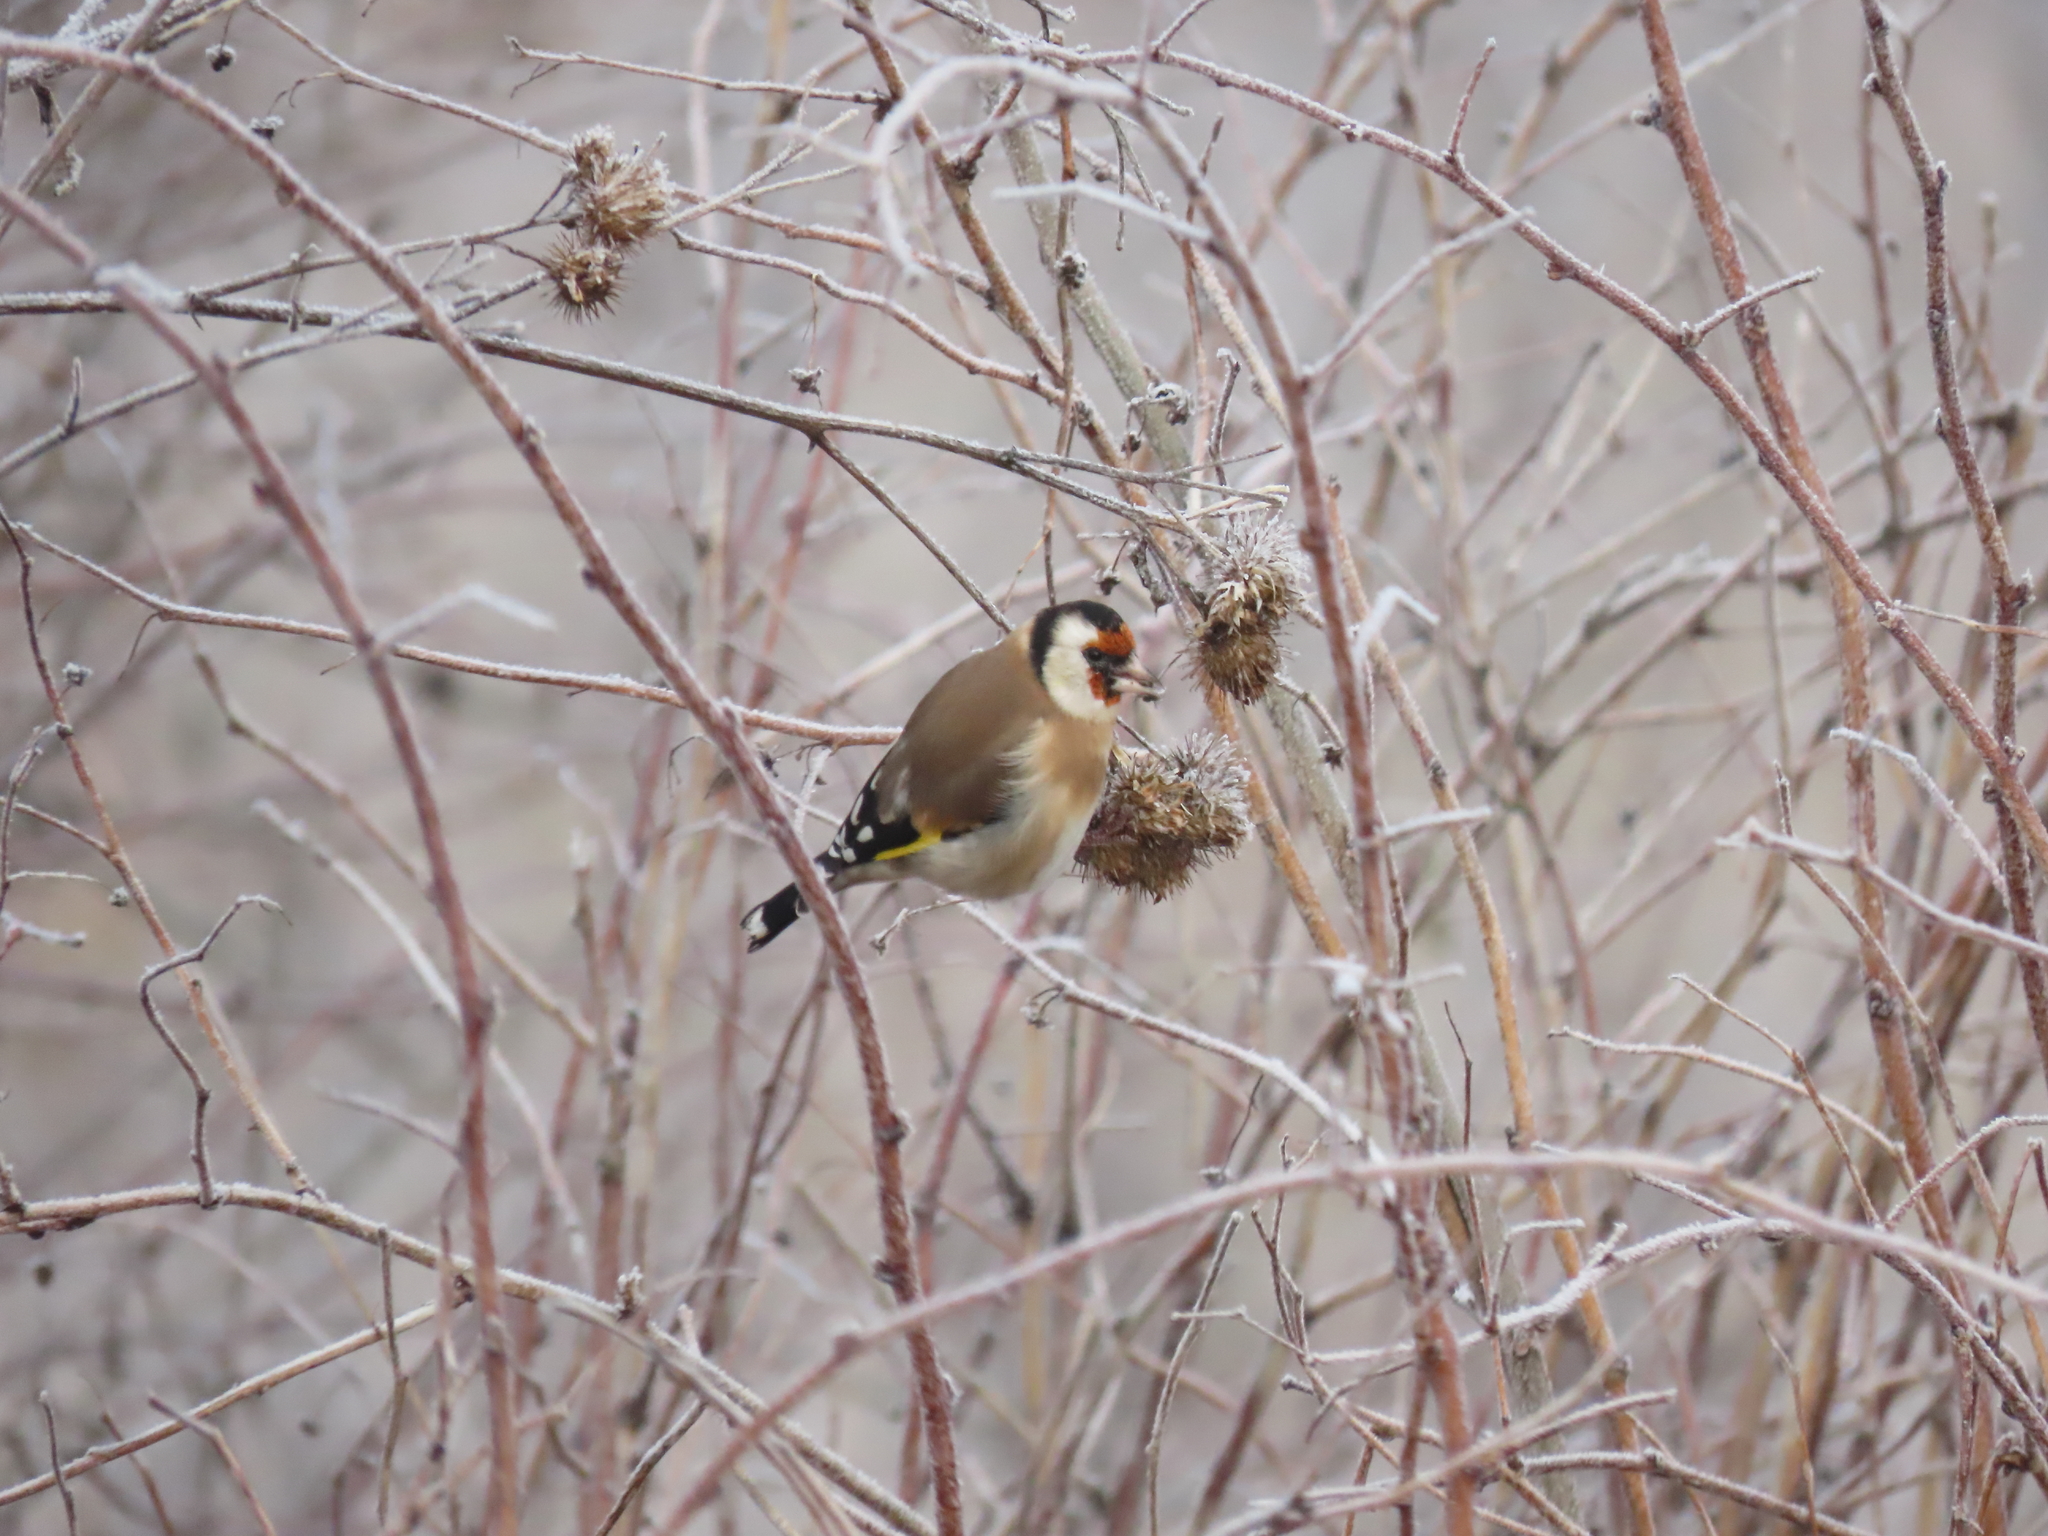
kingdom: Animalia
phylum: Chordata
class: Aves
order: Passeriformes
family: Fringillidae
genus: Carduelis
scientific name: Carduelis carduelis
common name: European goldfinch
